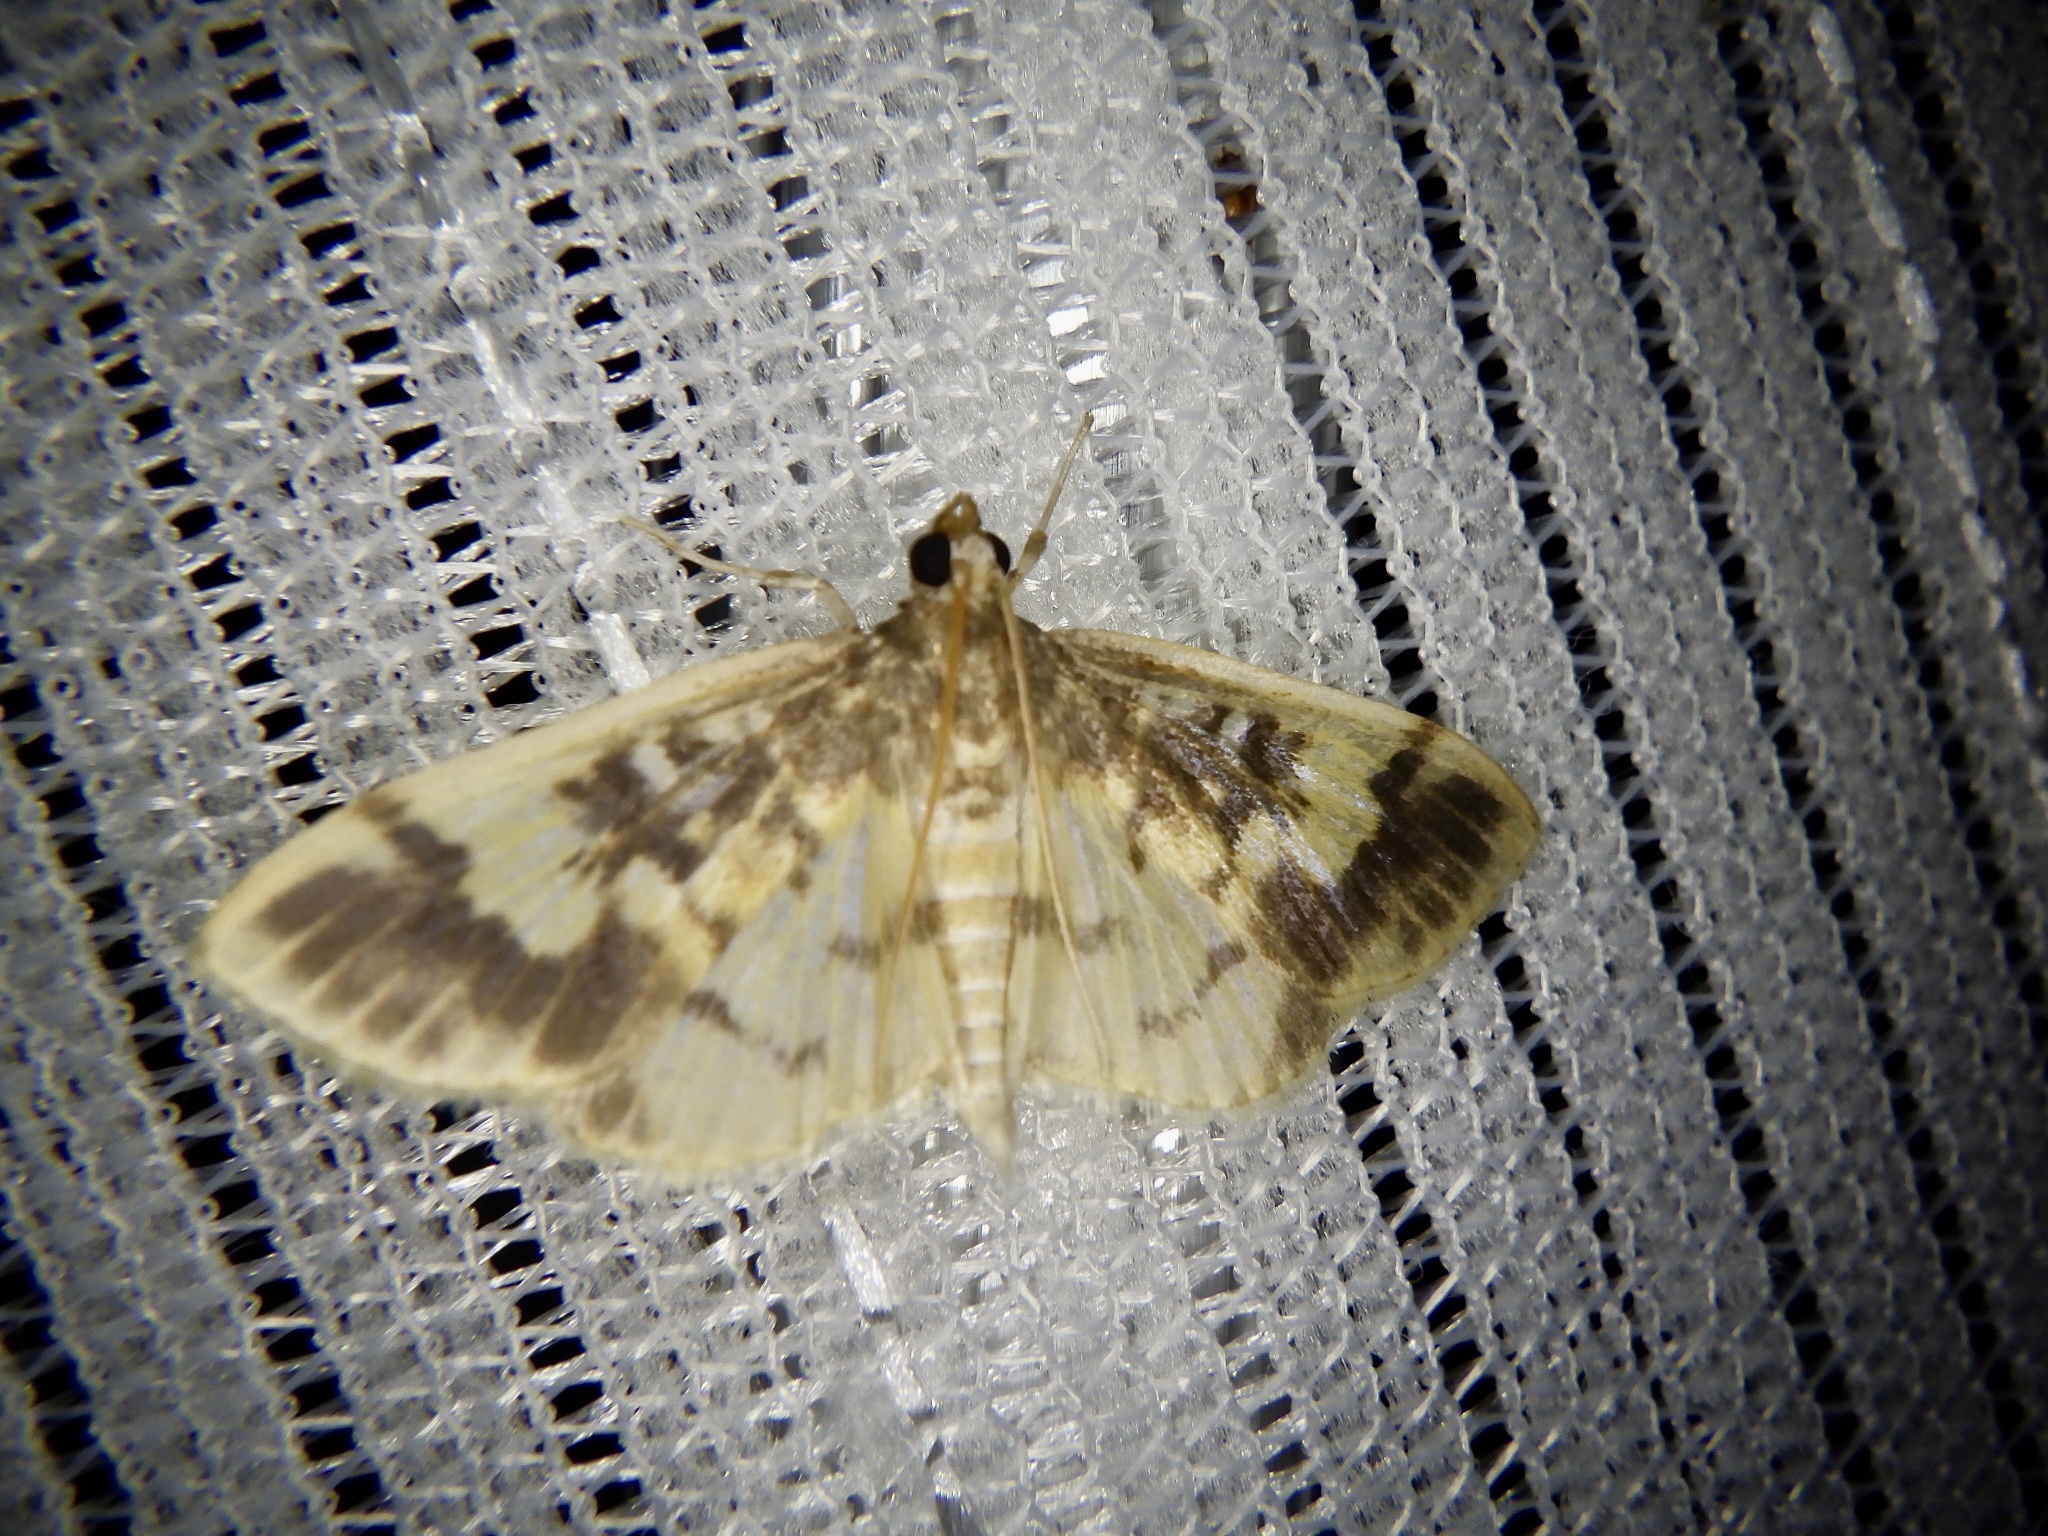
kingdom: Animalia
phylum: Arthropoda
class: Insecta
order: Lepidoptera
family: Crambidae
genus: Pseudebulea
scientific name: Pseudebulea fentoni
